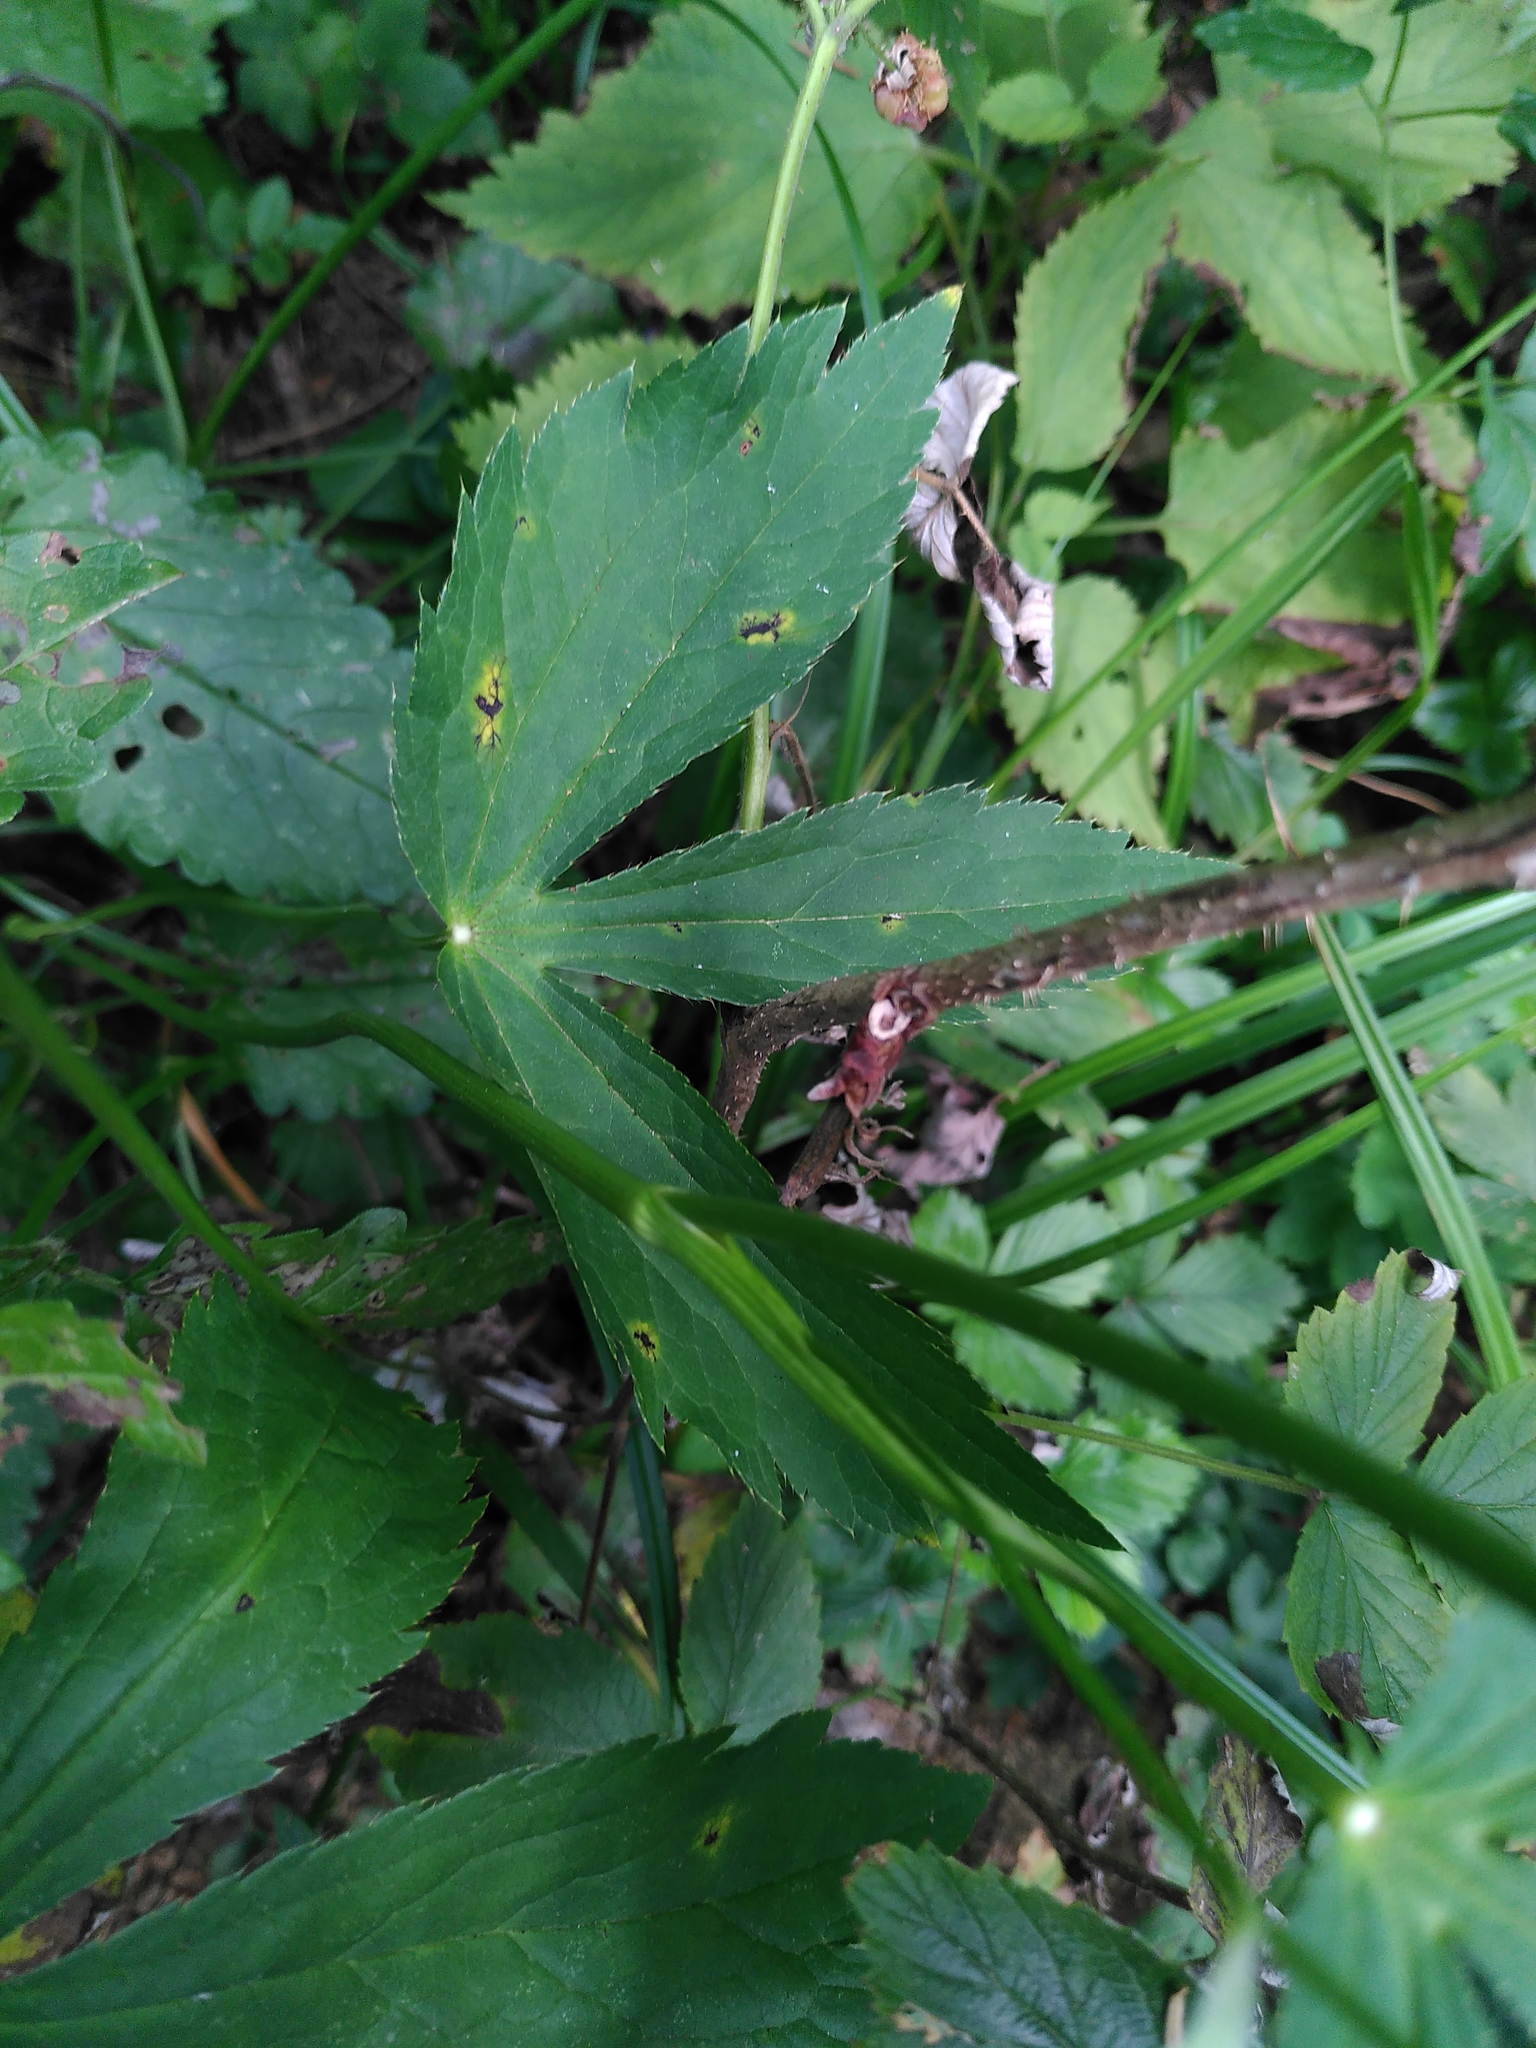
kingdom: Plantae
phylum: Tracheophyta
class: Magnoliopsida
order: Apiales
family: Apiaceae
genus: Astrantia
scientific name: Astrantia major
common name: Greater masterwort
